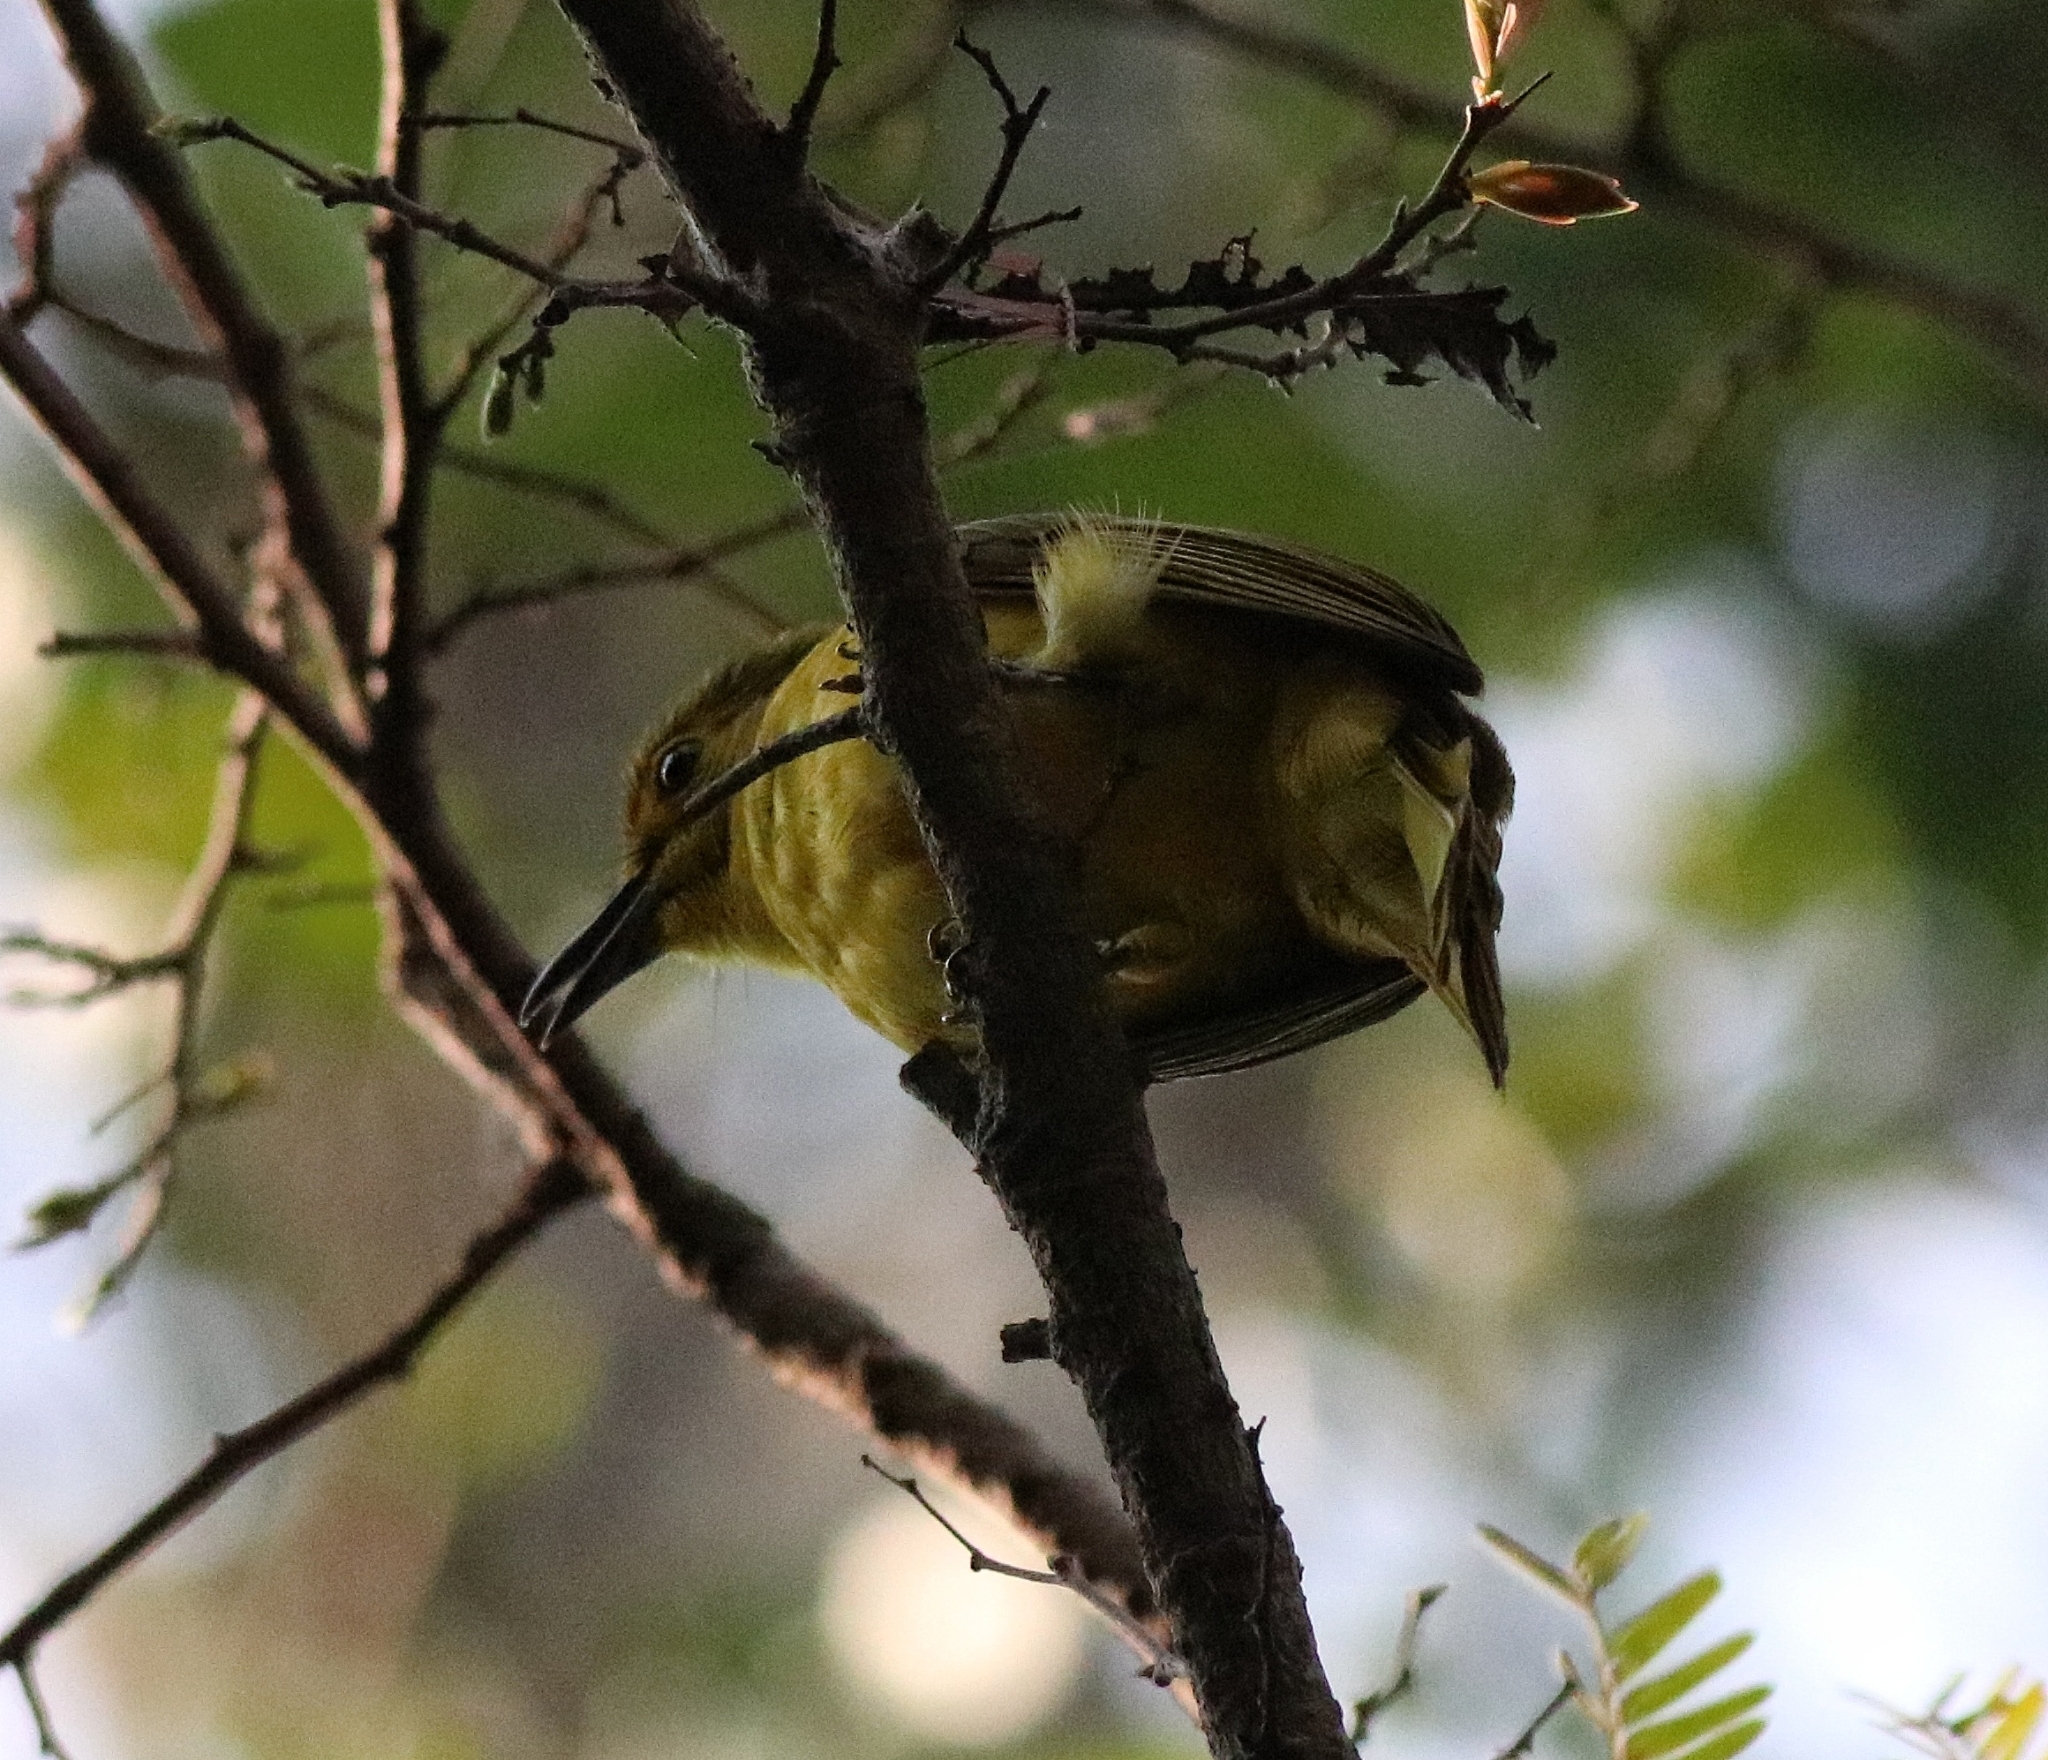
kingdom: Animalia
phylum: Chordata
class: Aves
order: Passeriformes
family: Pycnonotidae
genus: Acritillas
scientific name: Acritillas indica
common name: Yellow-browed bulbul
